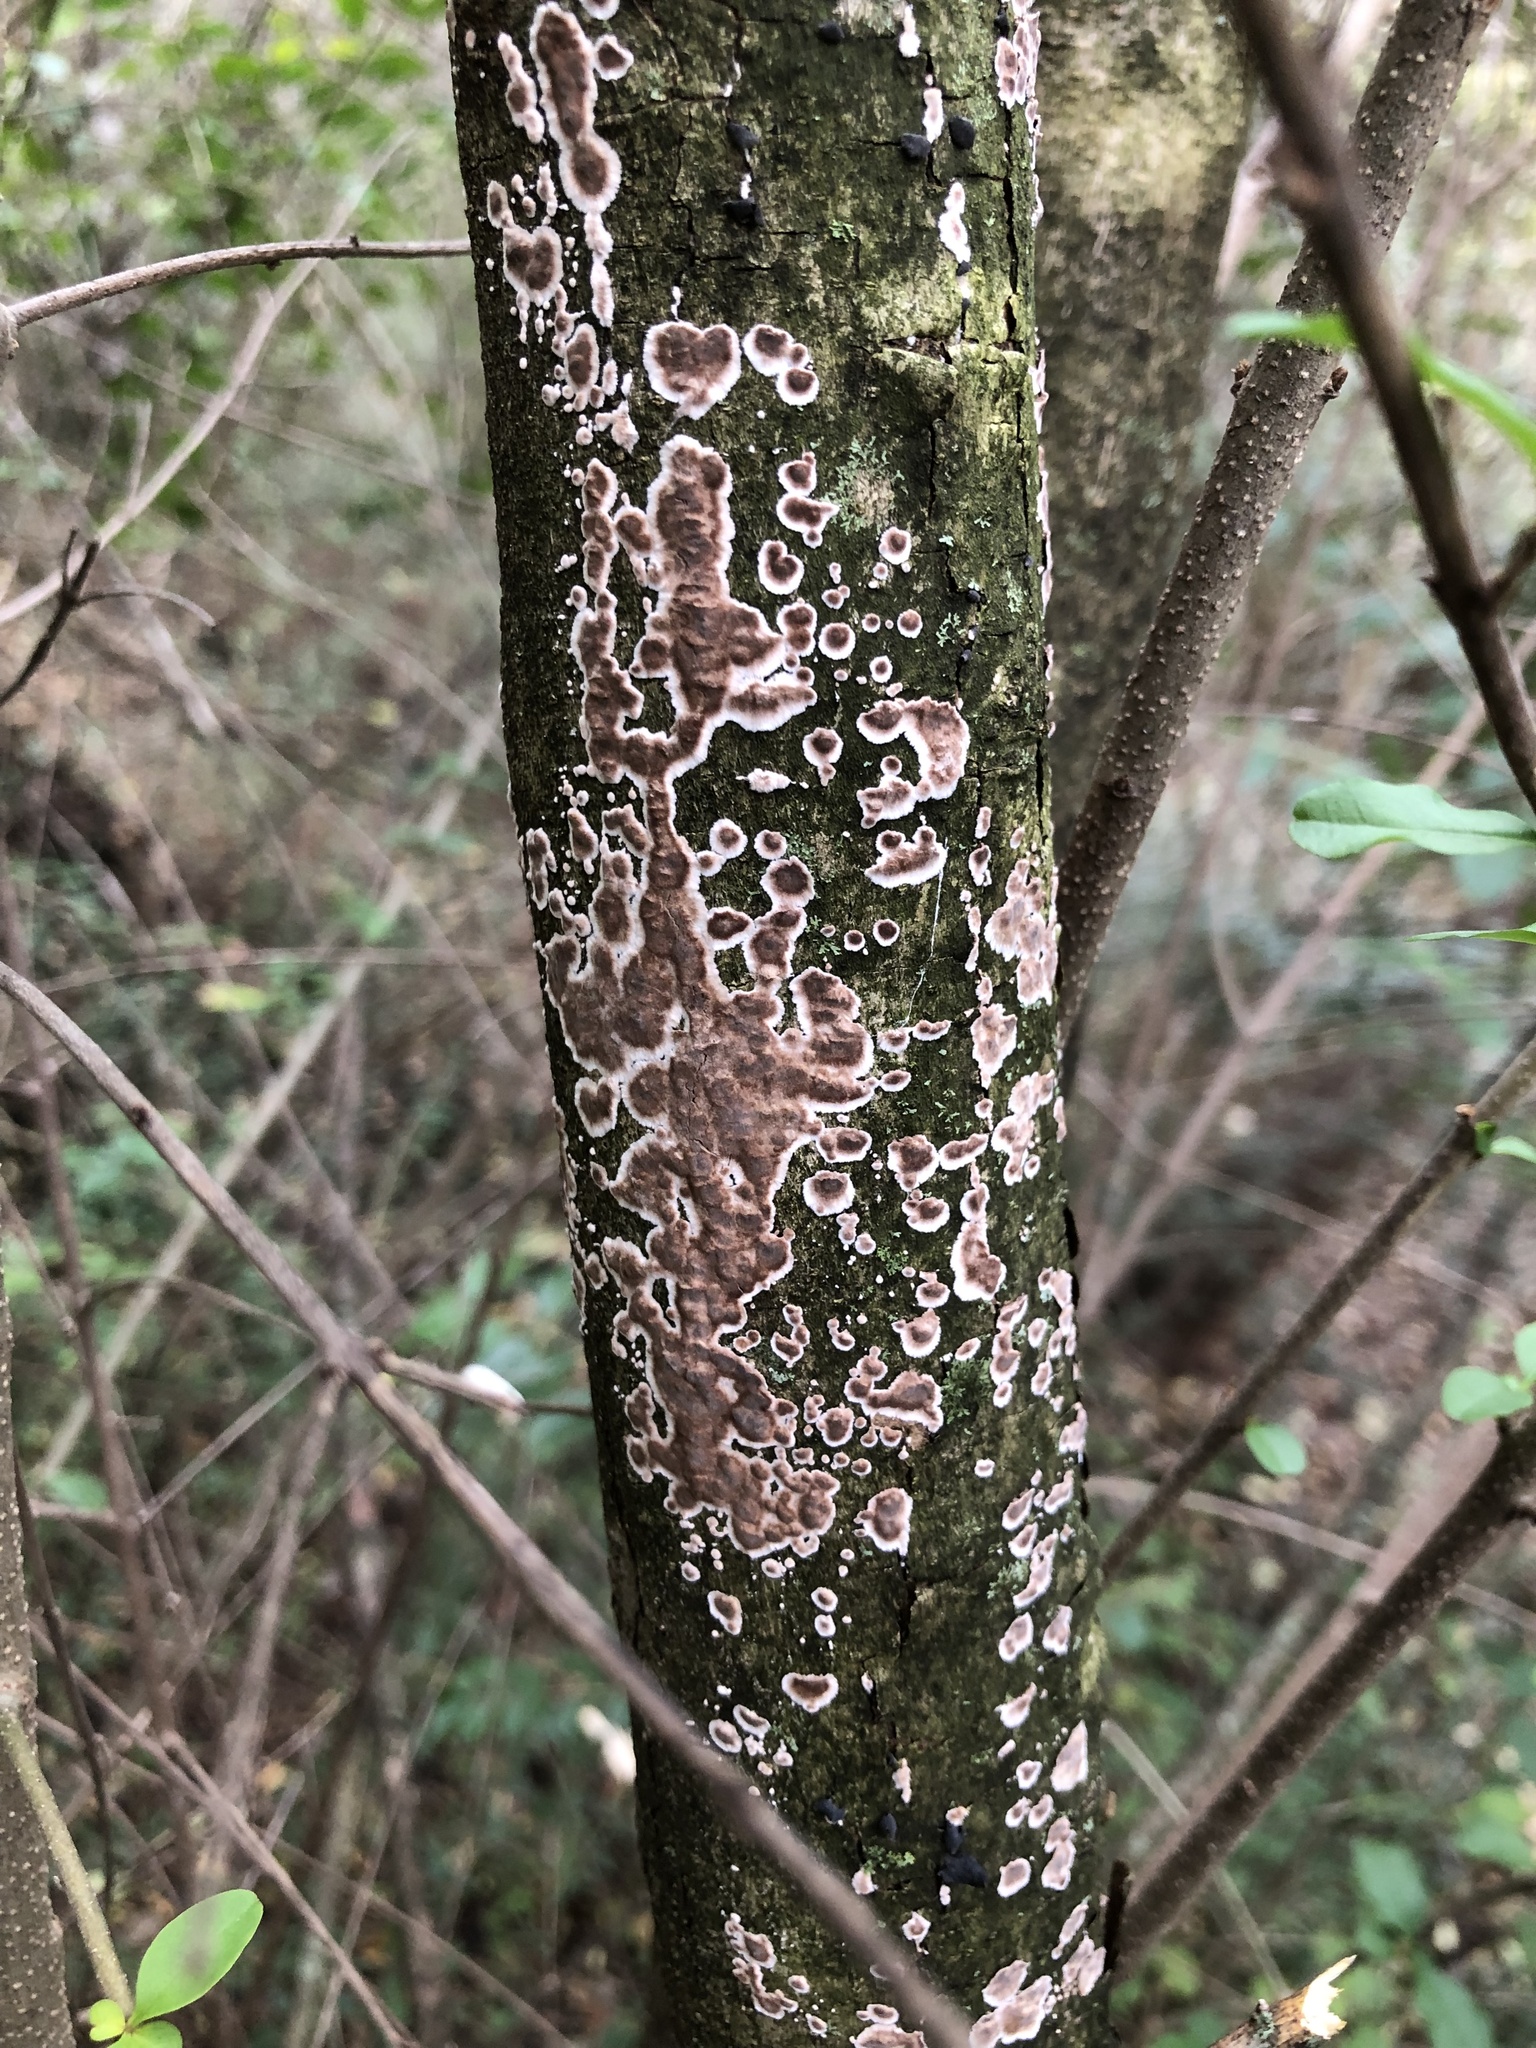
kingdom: Fungi
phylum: Basidiomycota
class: Agaricomycetes
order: Russulales
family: Peniophoraceae
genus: Peniophora
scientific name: Peniophora albobadia
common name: Giraffe spots
